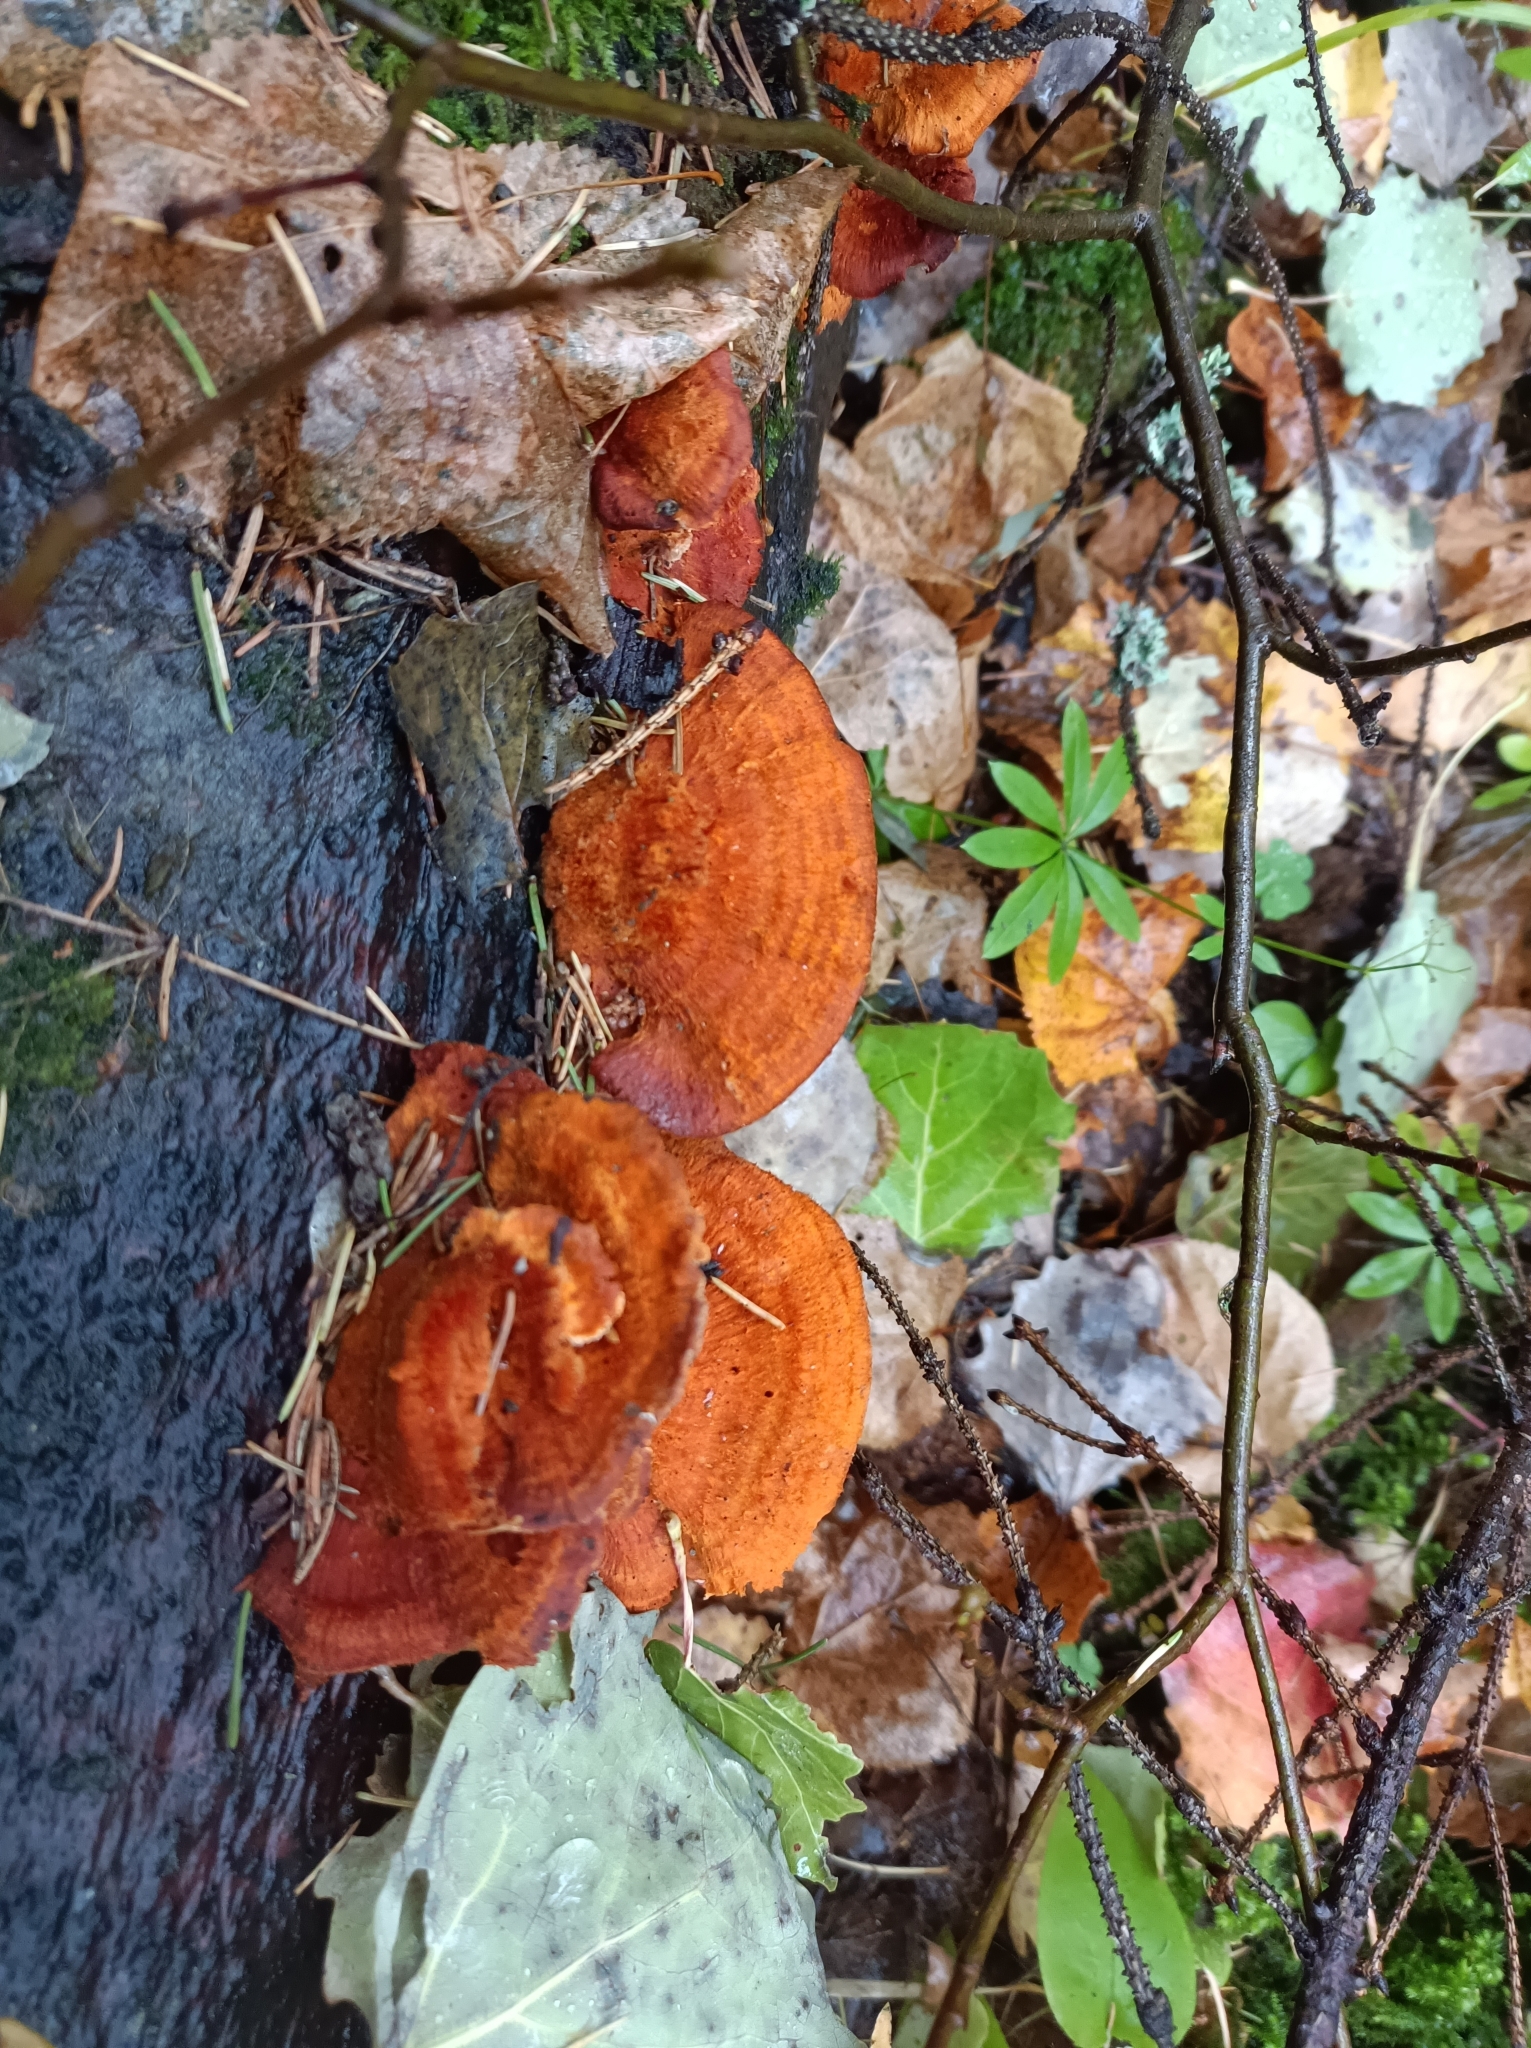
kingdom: Fungi
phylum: Basidiomycota
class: Agaricomycetes
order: Polyporales
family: Polyporaceae
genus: Trametes
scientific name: Trametes cinnabarina
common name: Northern cinnabar polypore
